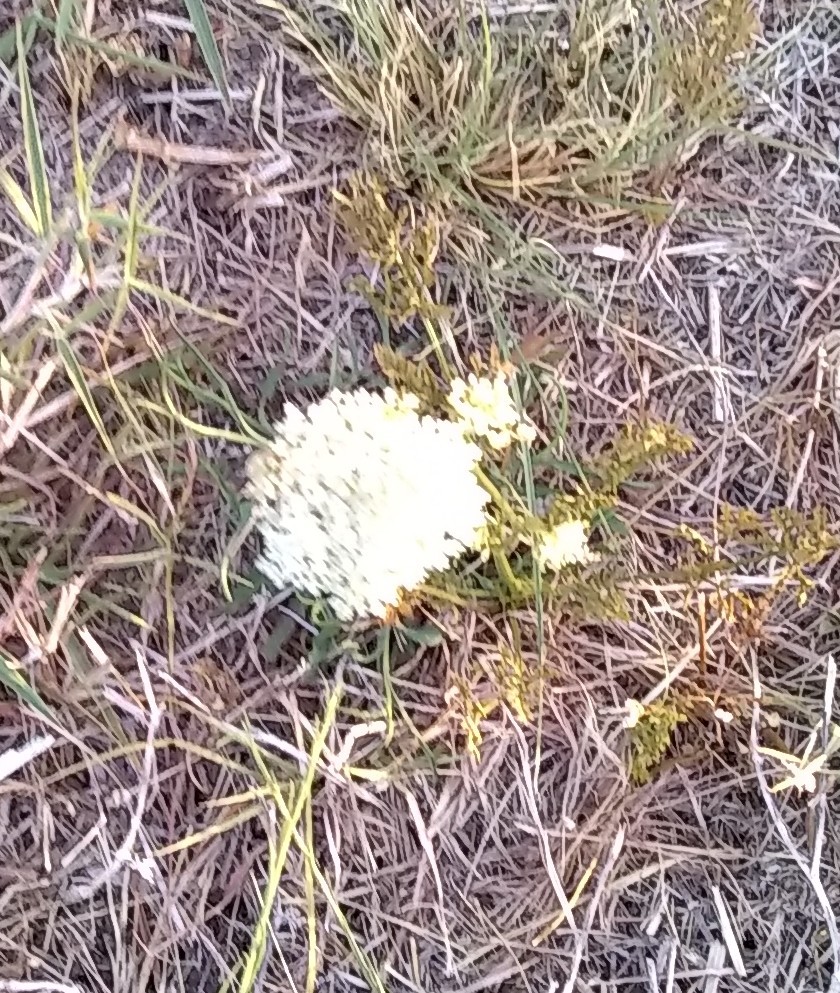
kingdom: Plantae
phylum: Tracheophyta
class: Magnoliopsida
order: Apiales
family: Apiaceae
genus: Daucus
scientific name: Daucus carota
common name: Wild carrot
